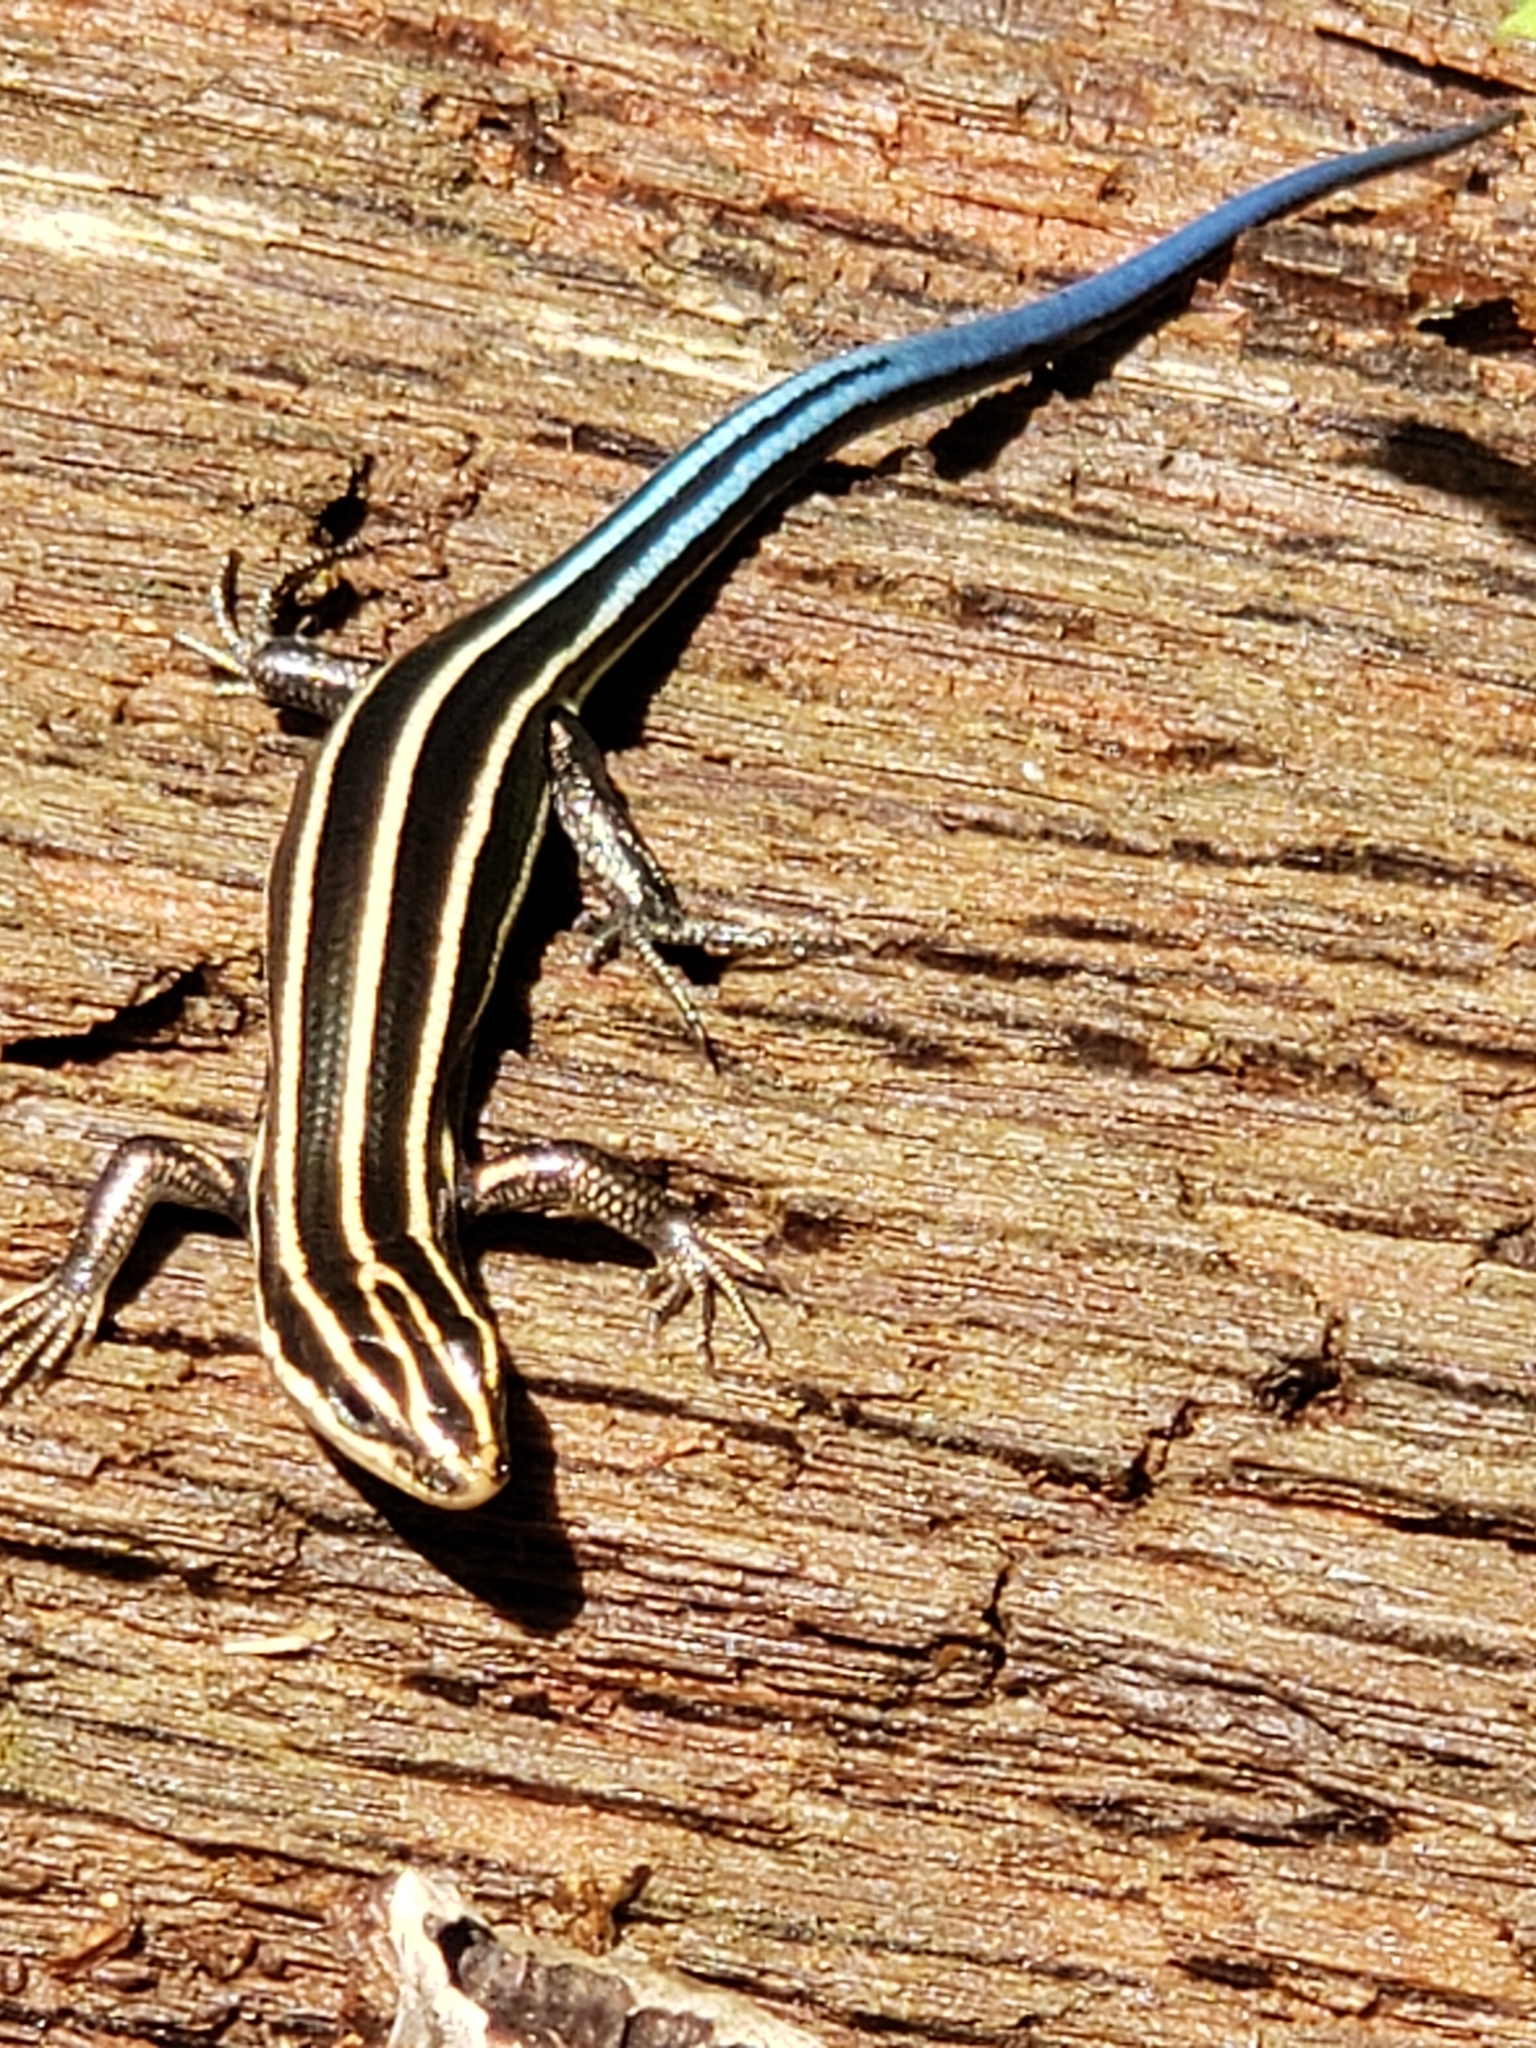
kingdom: Animalia
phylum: Chordata
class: Squamata
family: Scincidae
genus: Plestiodon
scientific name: Plestiodon fasciatus
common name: Five-lined skink
